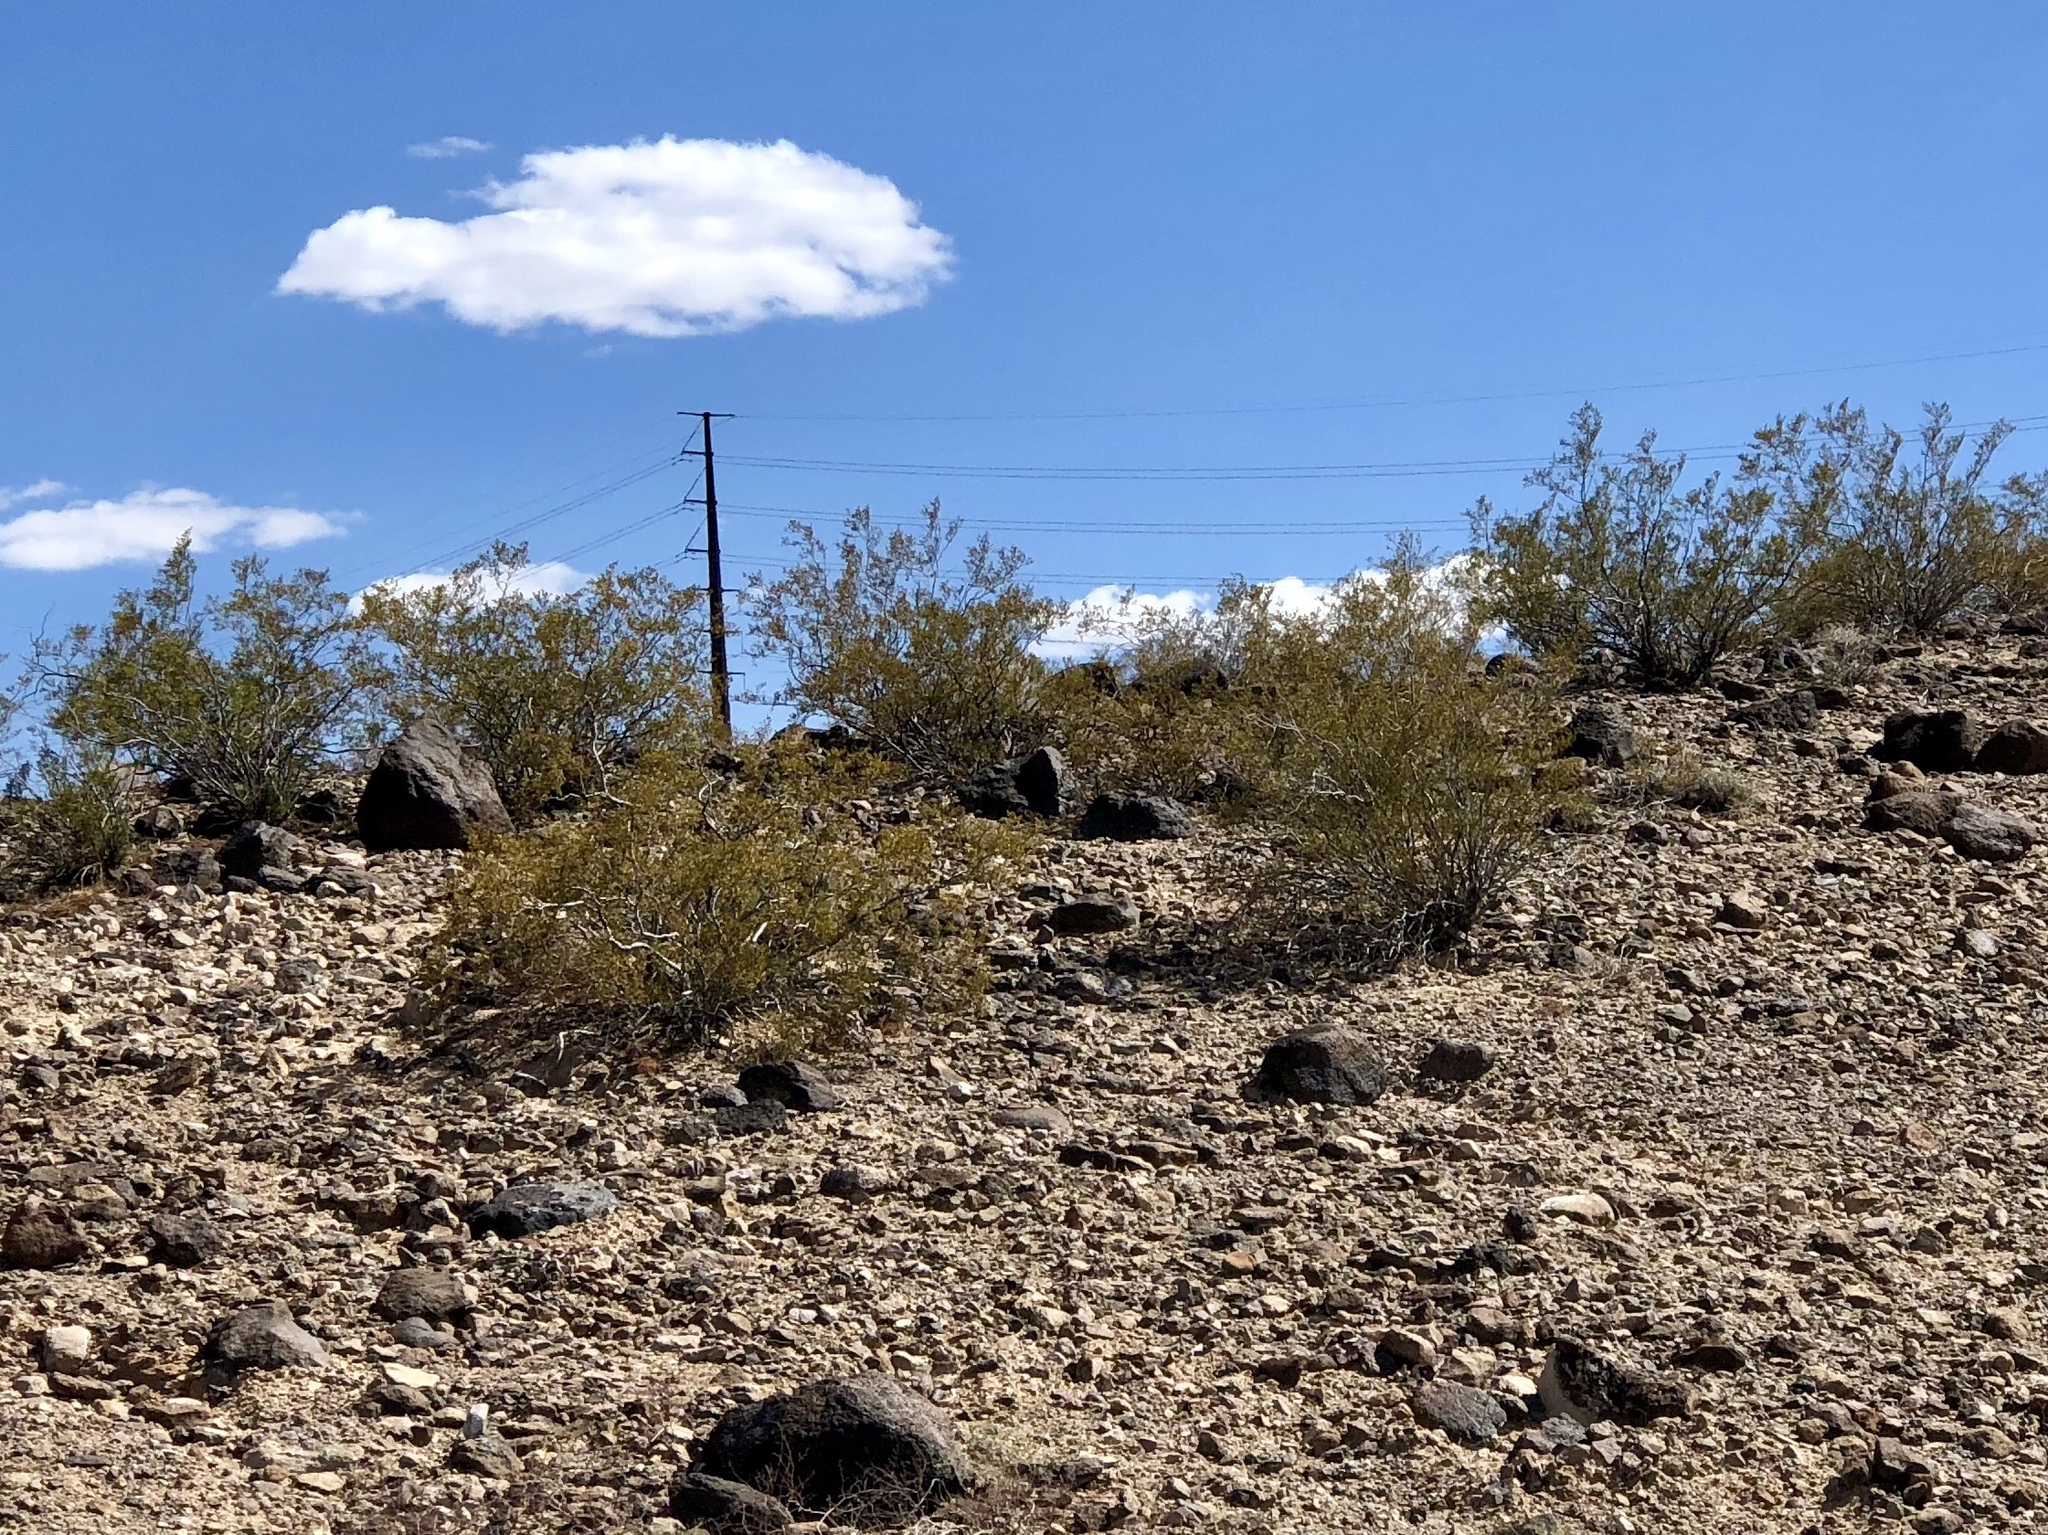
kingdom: Plantae
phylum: Tracheophyta
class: Magnoliopsida
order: Zygophyllales
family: Zygophyllaceae
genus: Larrea
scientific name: Larrea tridentata
